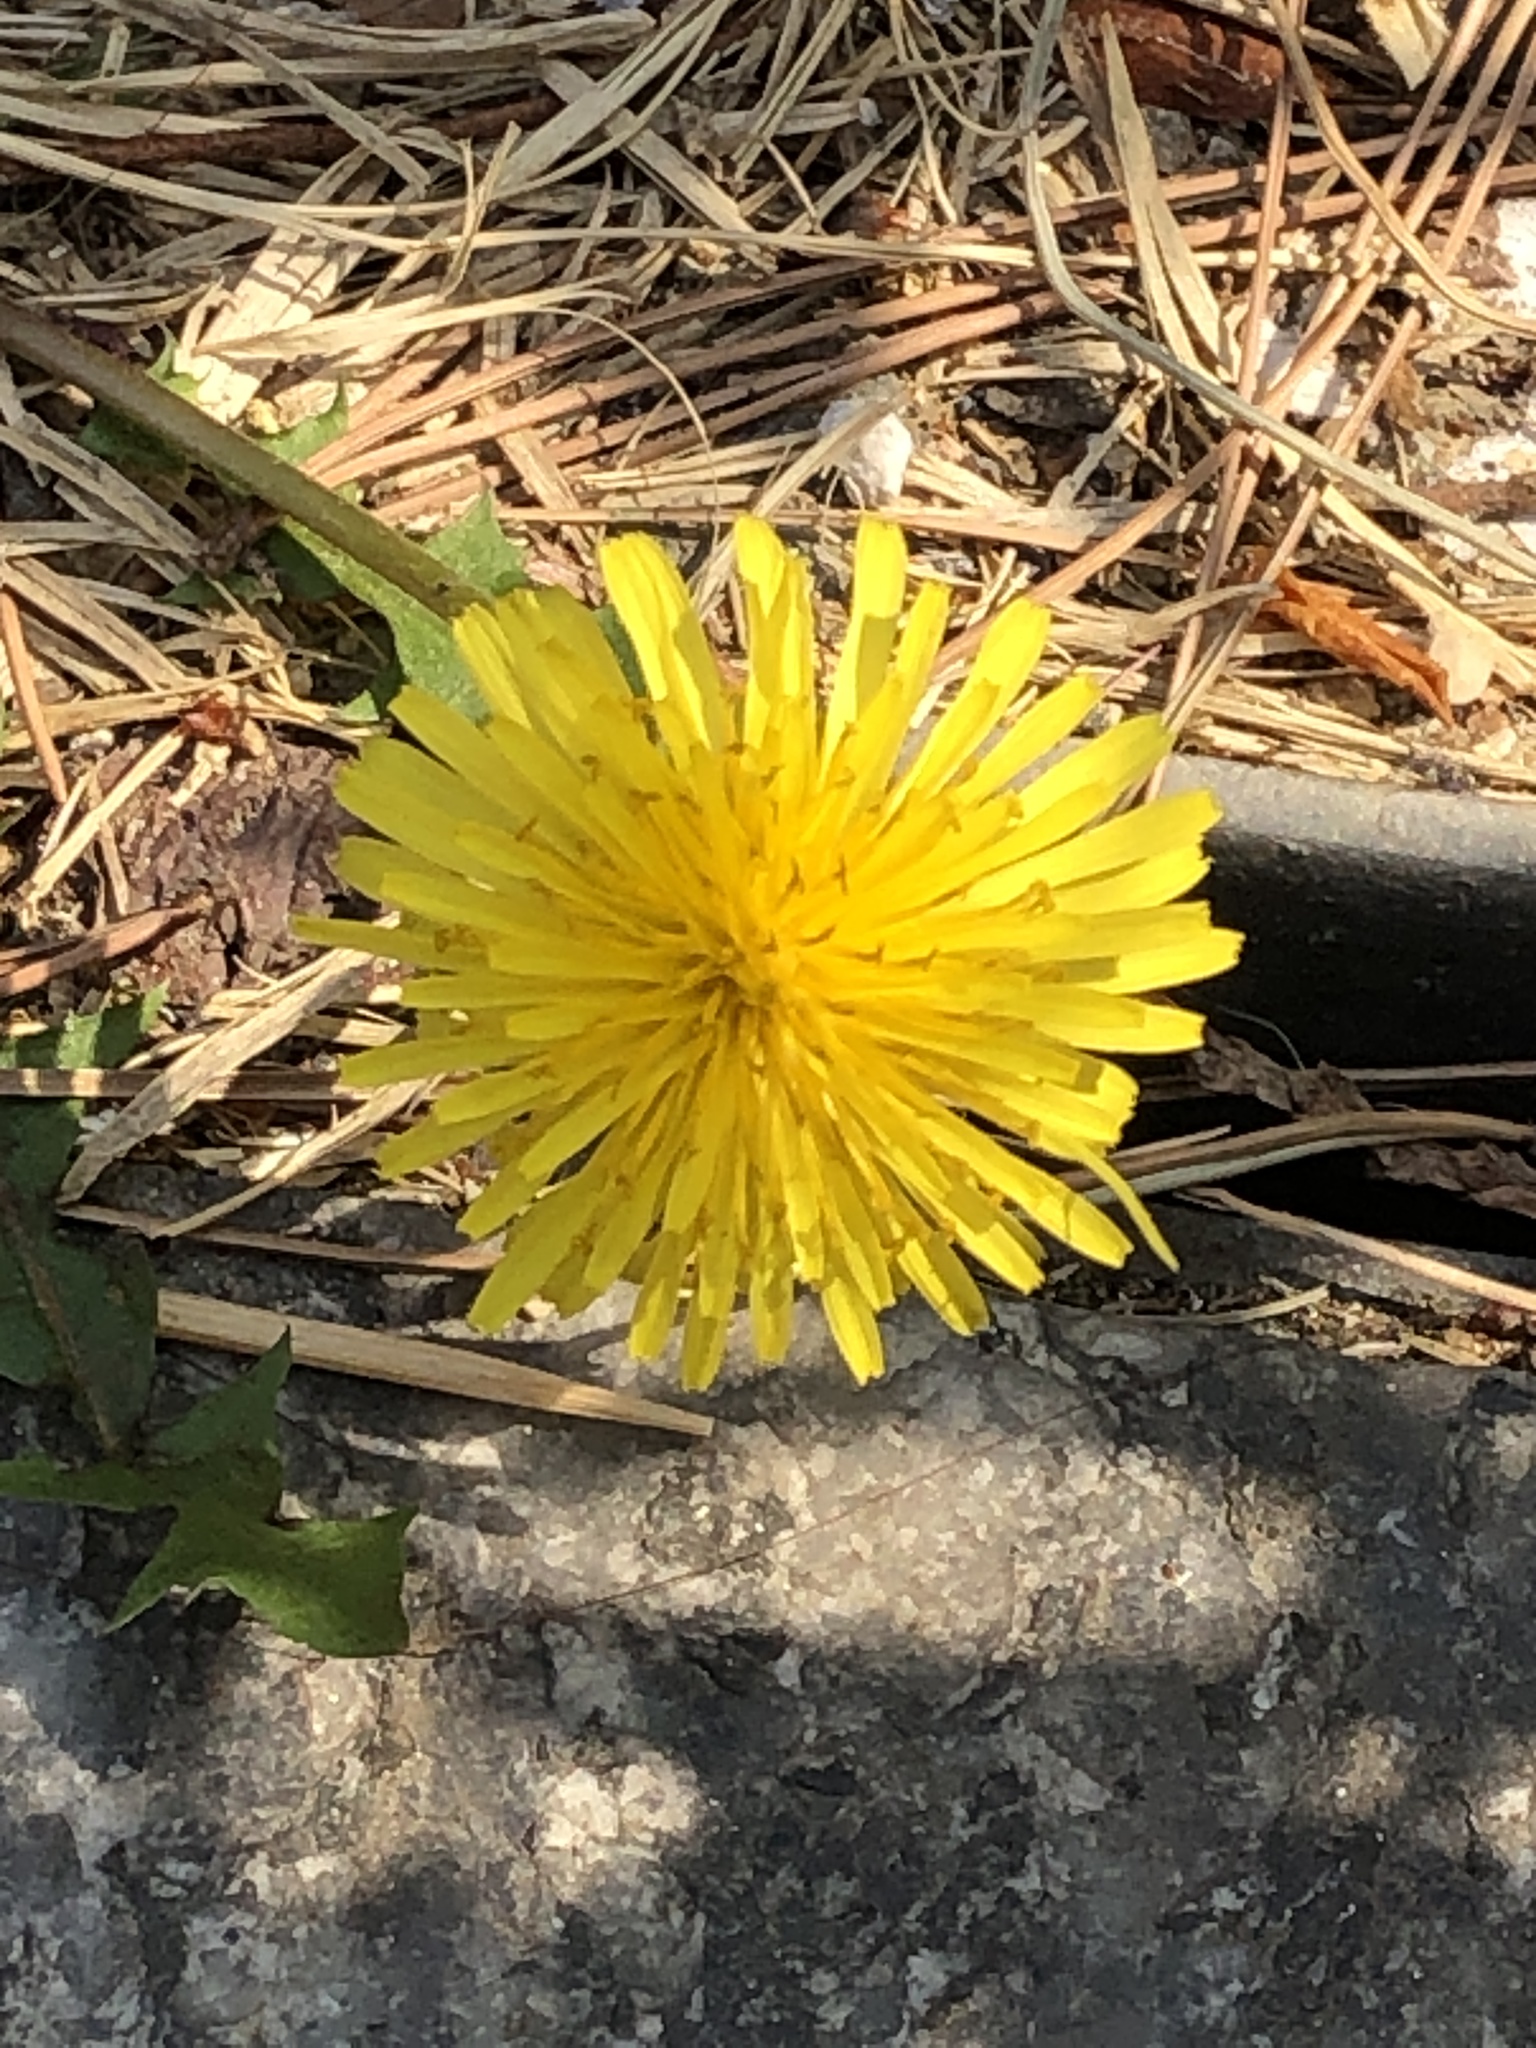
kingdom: Plantae
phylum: Tracheophyta
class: Magnoliopsida
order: Asterales
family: Asteraceae
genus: Taraxacum
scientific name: Taraxacum officinale
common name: Common dandelion
